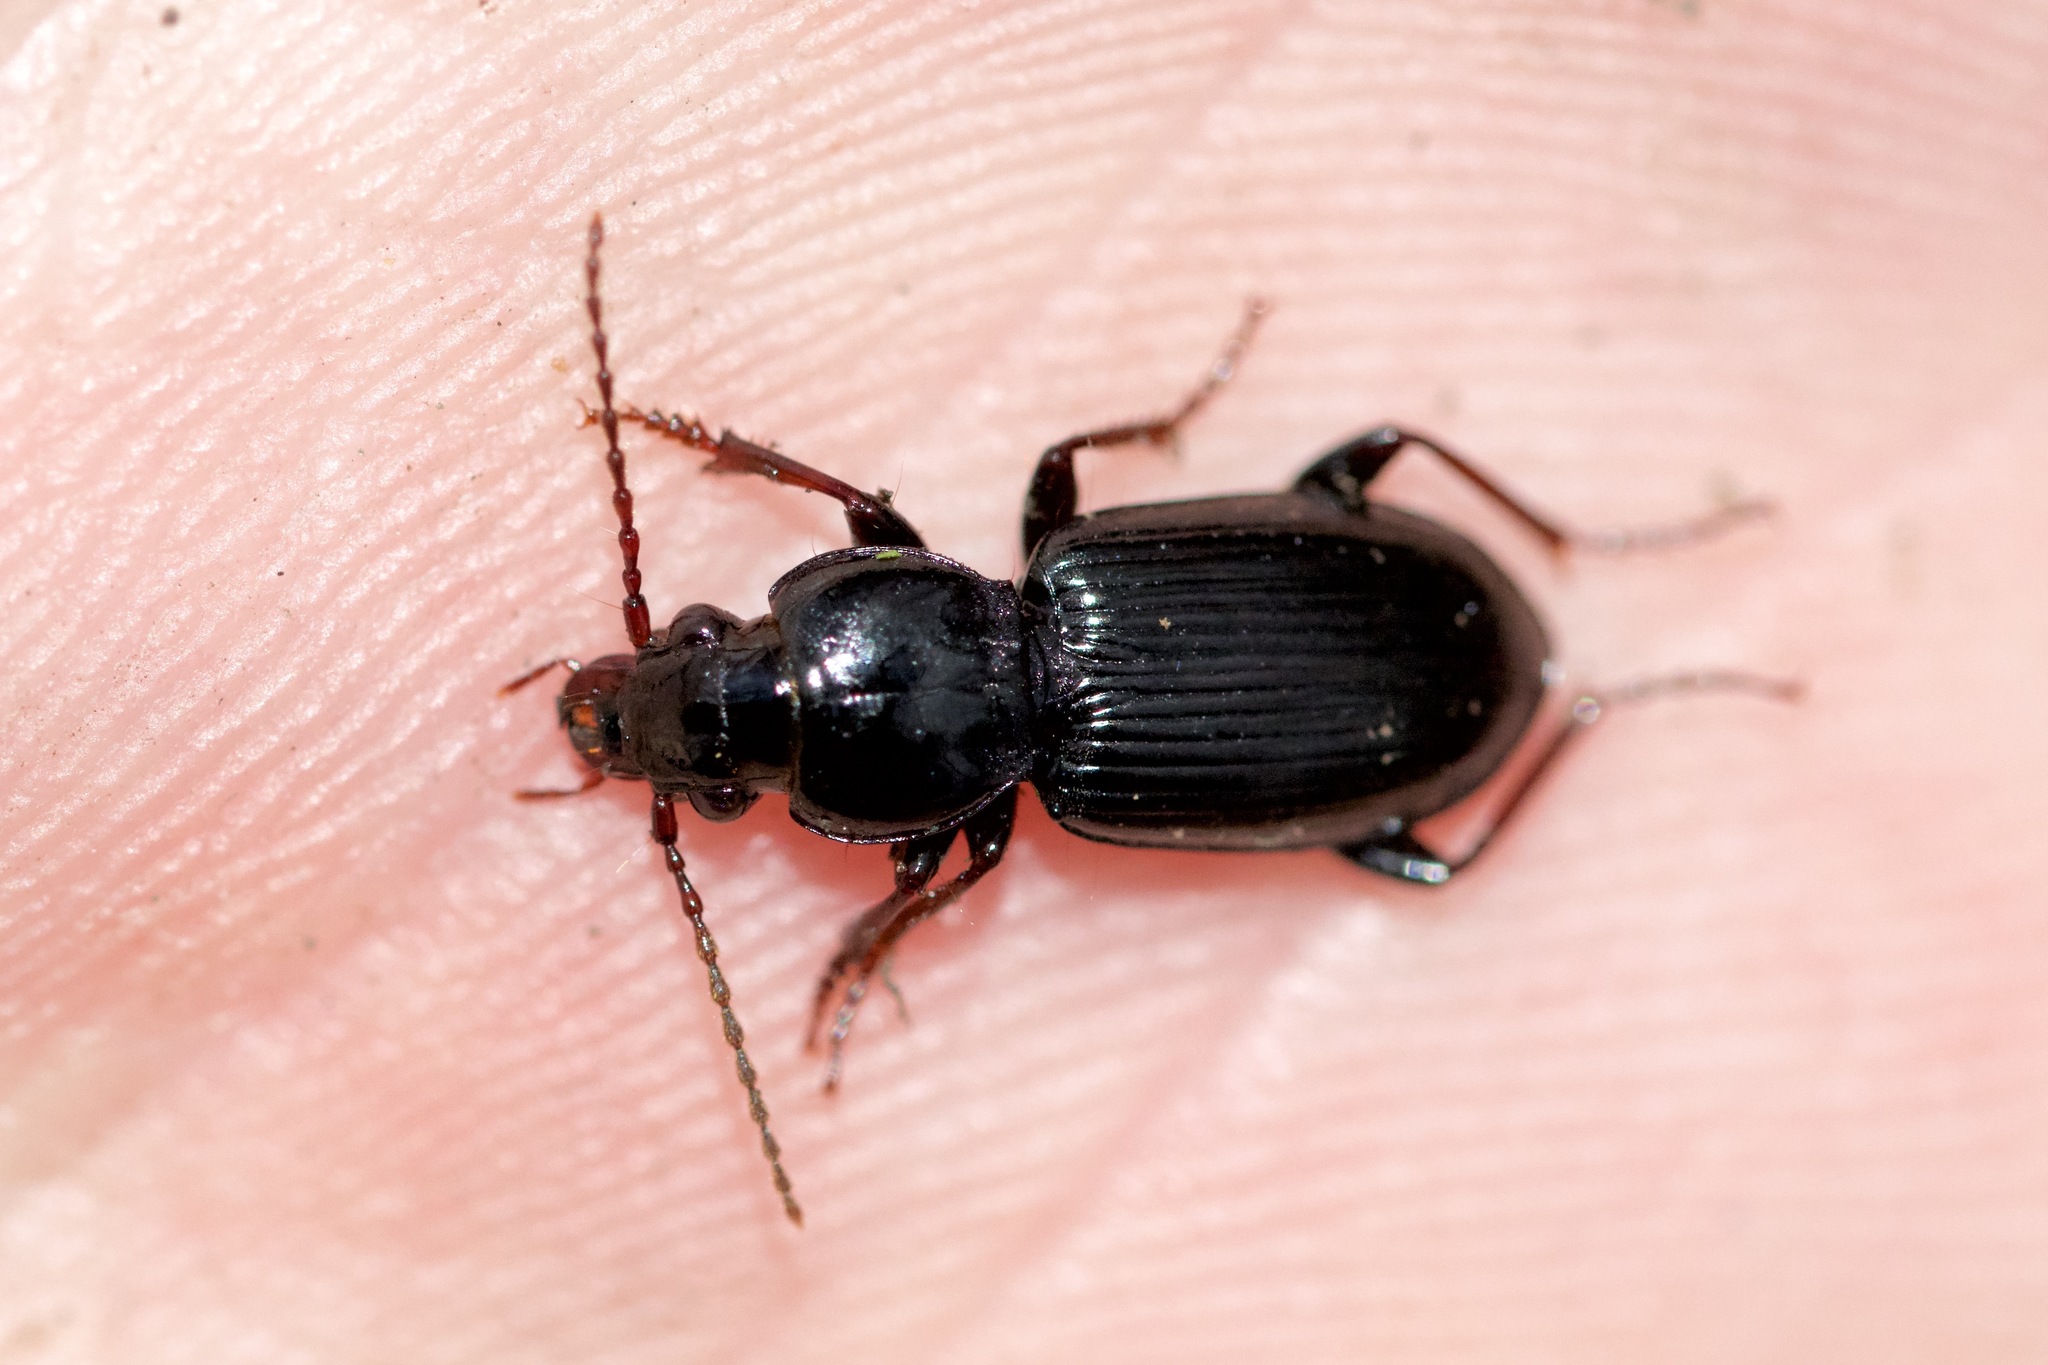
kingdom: Animalia
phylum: Arthropoda
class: Insecta
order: Coleoptera
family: Carabidae
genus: Pterostichus
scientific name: Pterostichus caudicalis
